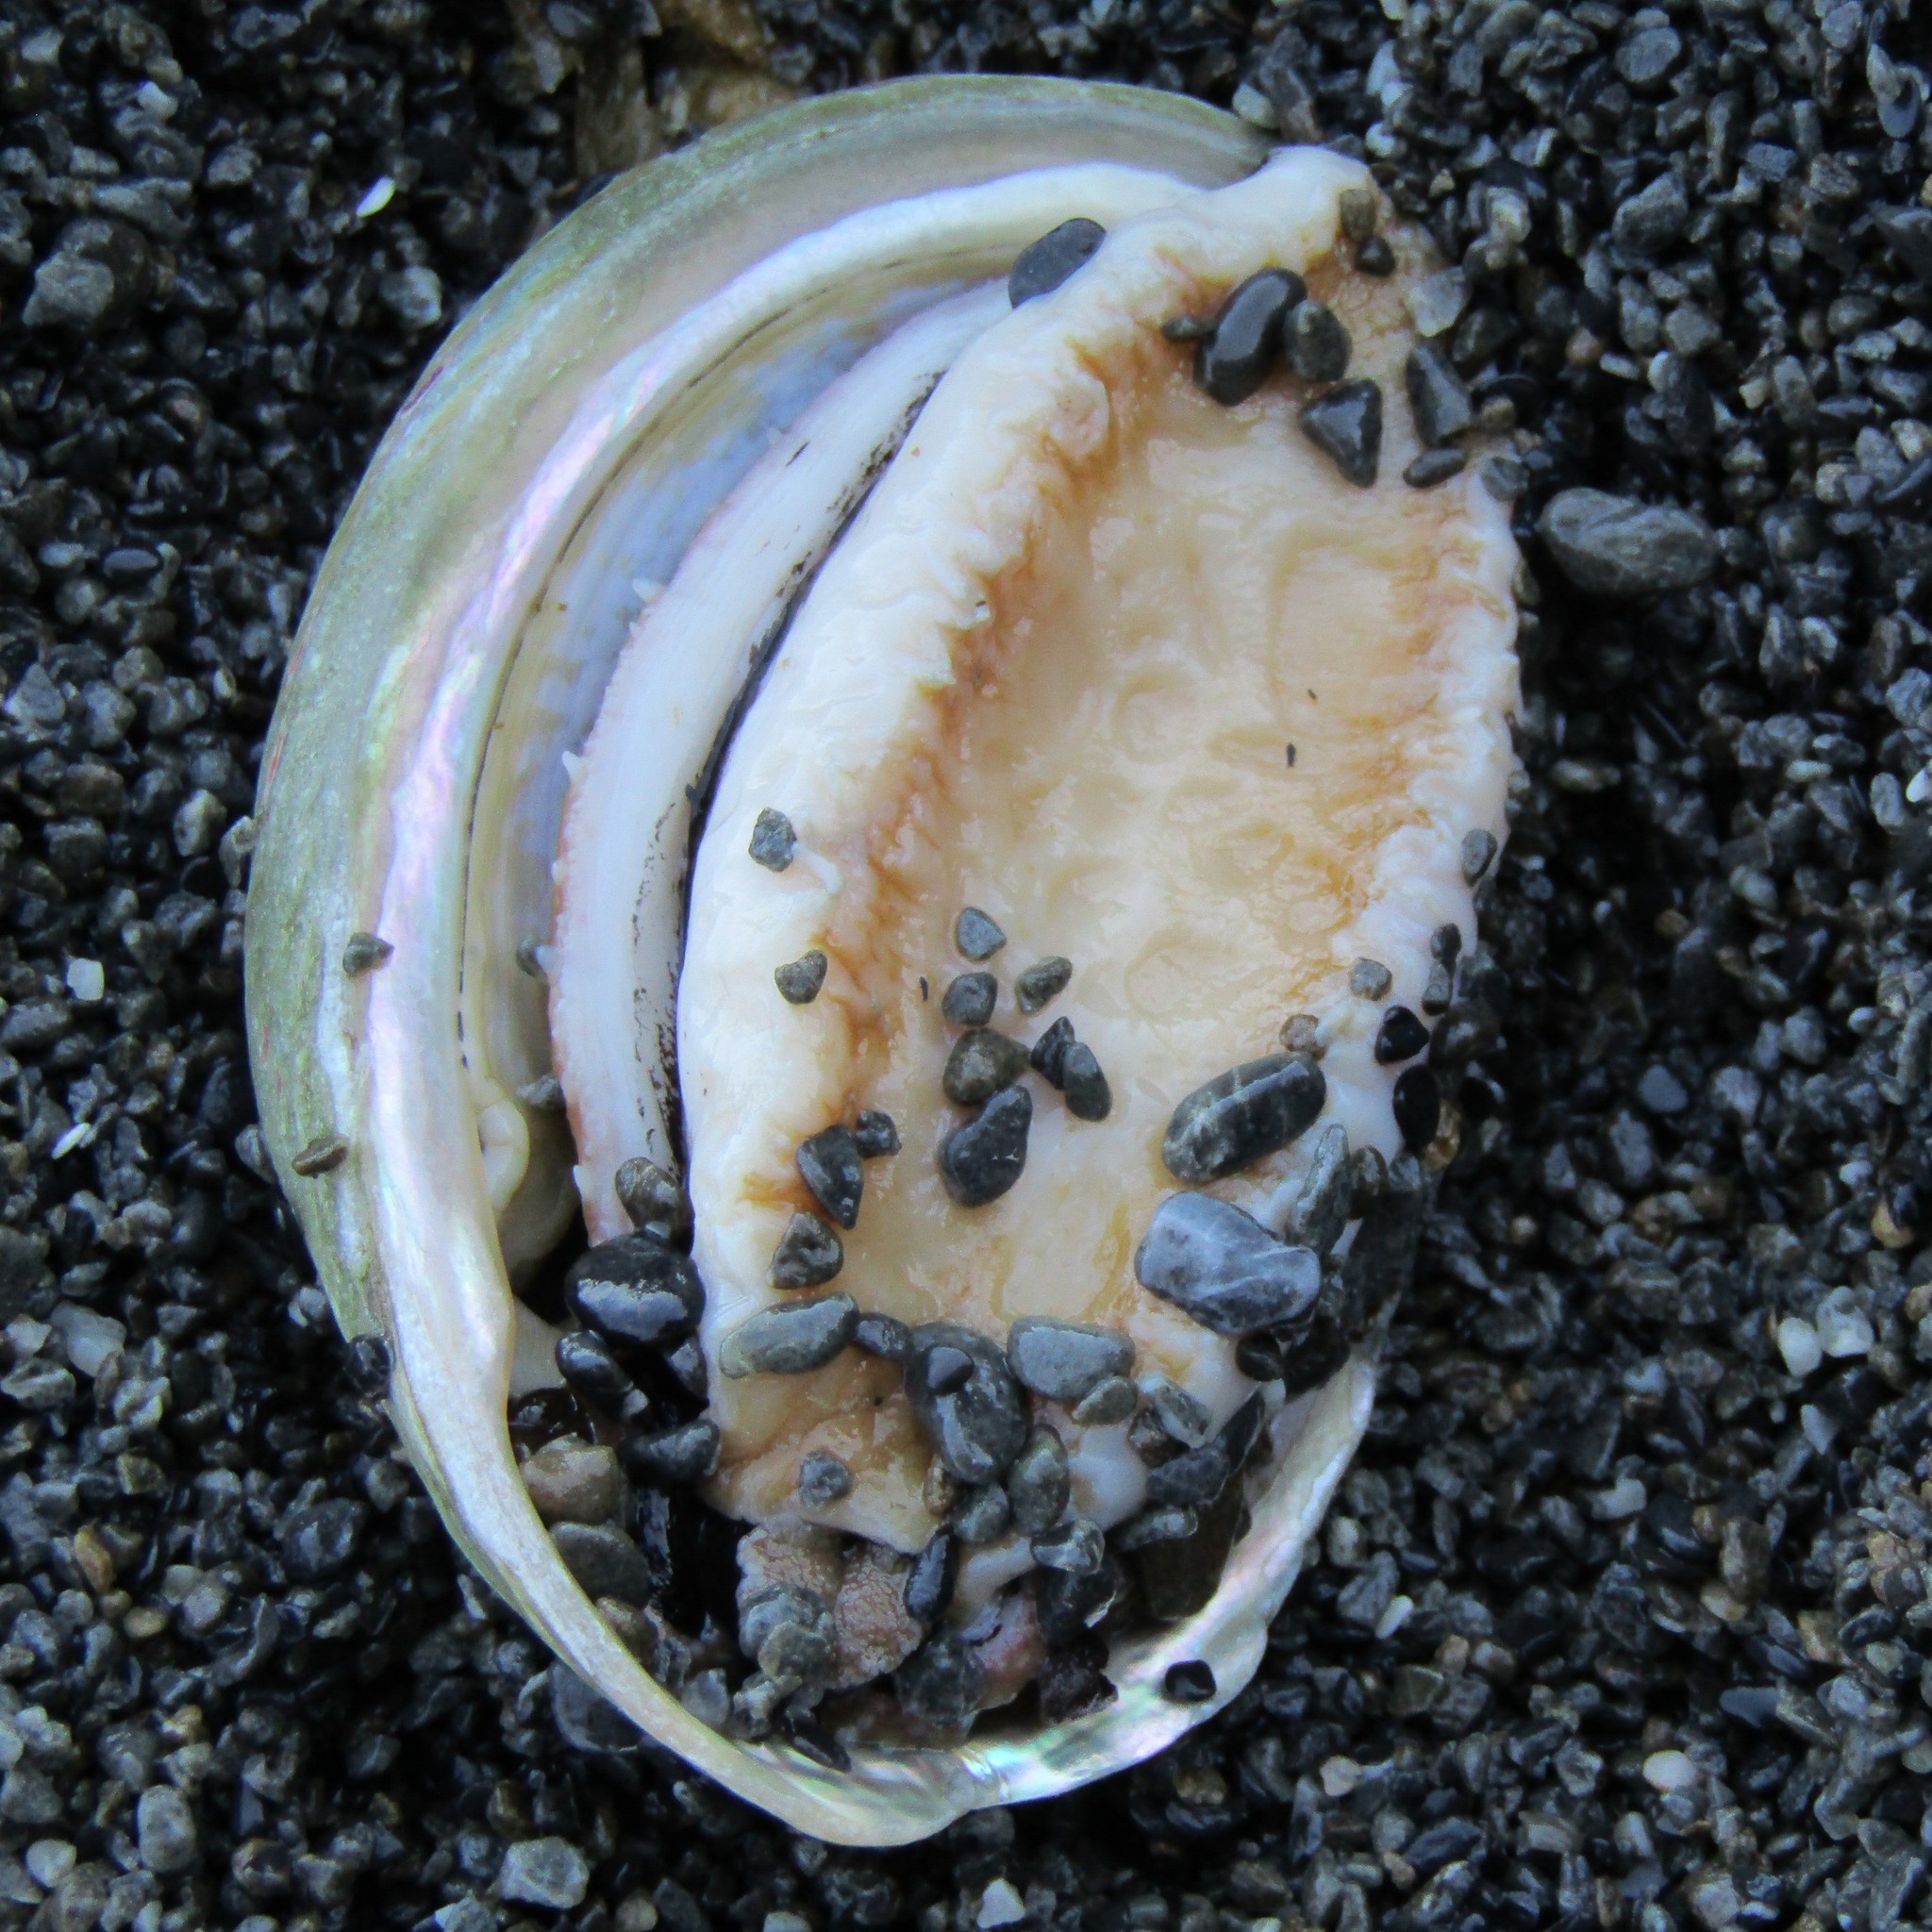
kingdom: Animalia
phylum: Mollusca
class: Gastropoda
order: Lepetellida
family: Haliotidae
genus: Haliotis
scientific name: Haliotis australis
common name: Silver abalone
